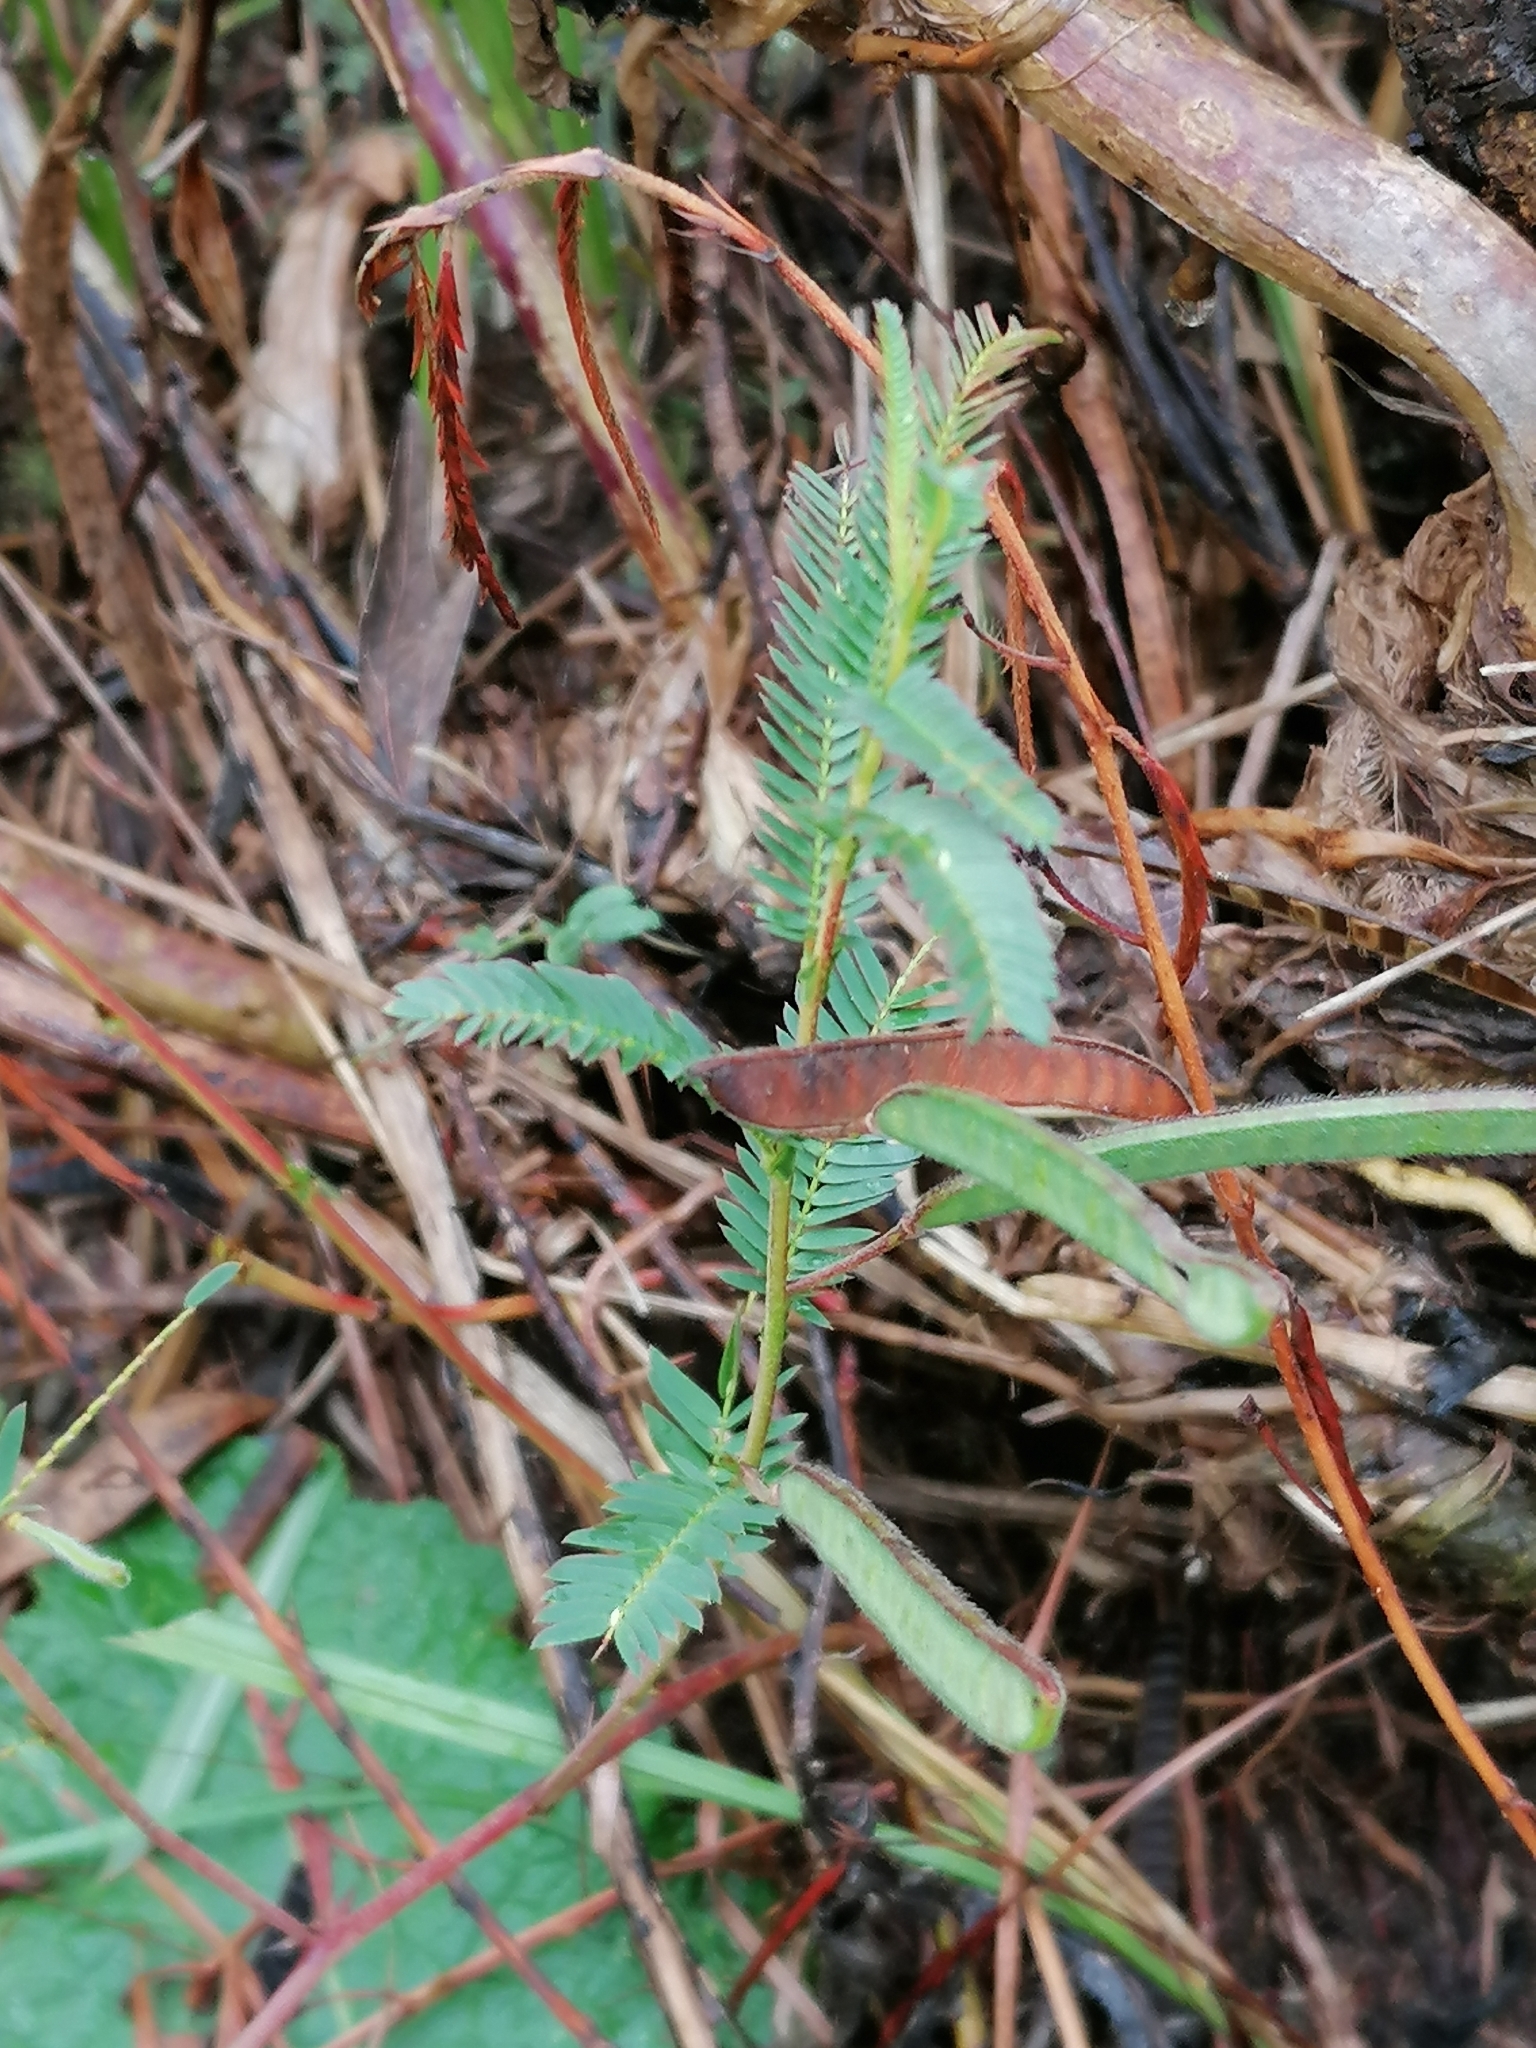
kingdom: Plantae
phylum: Tracheophyta
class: Magnoliopsida
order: Fabales
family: Fabaceae
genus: Chamaecrista
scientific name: Chamaecrista comosa
